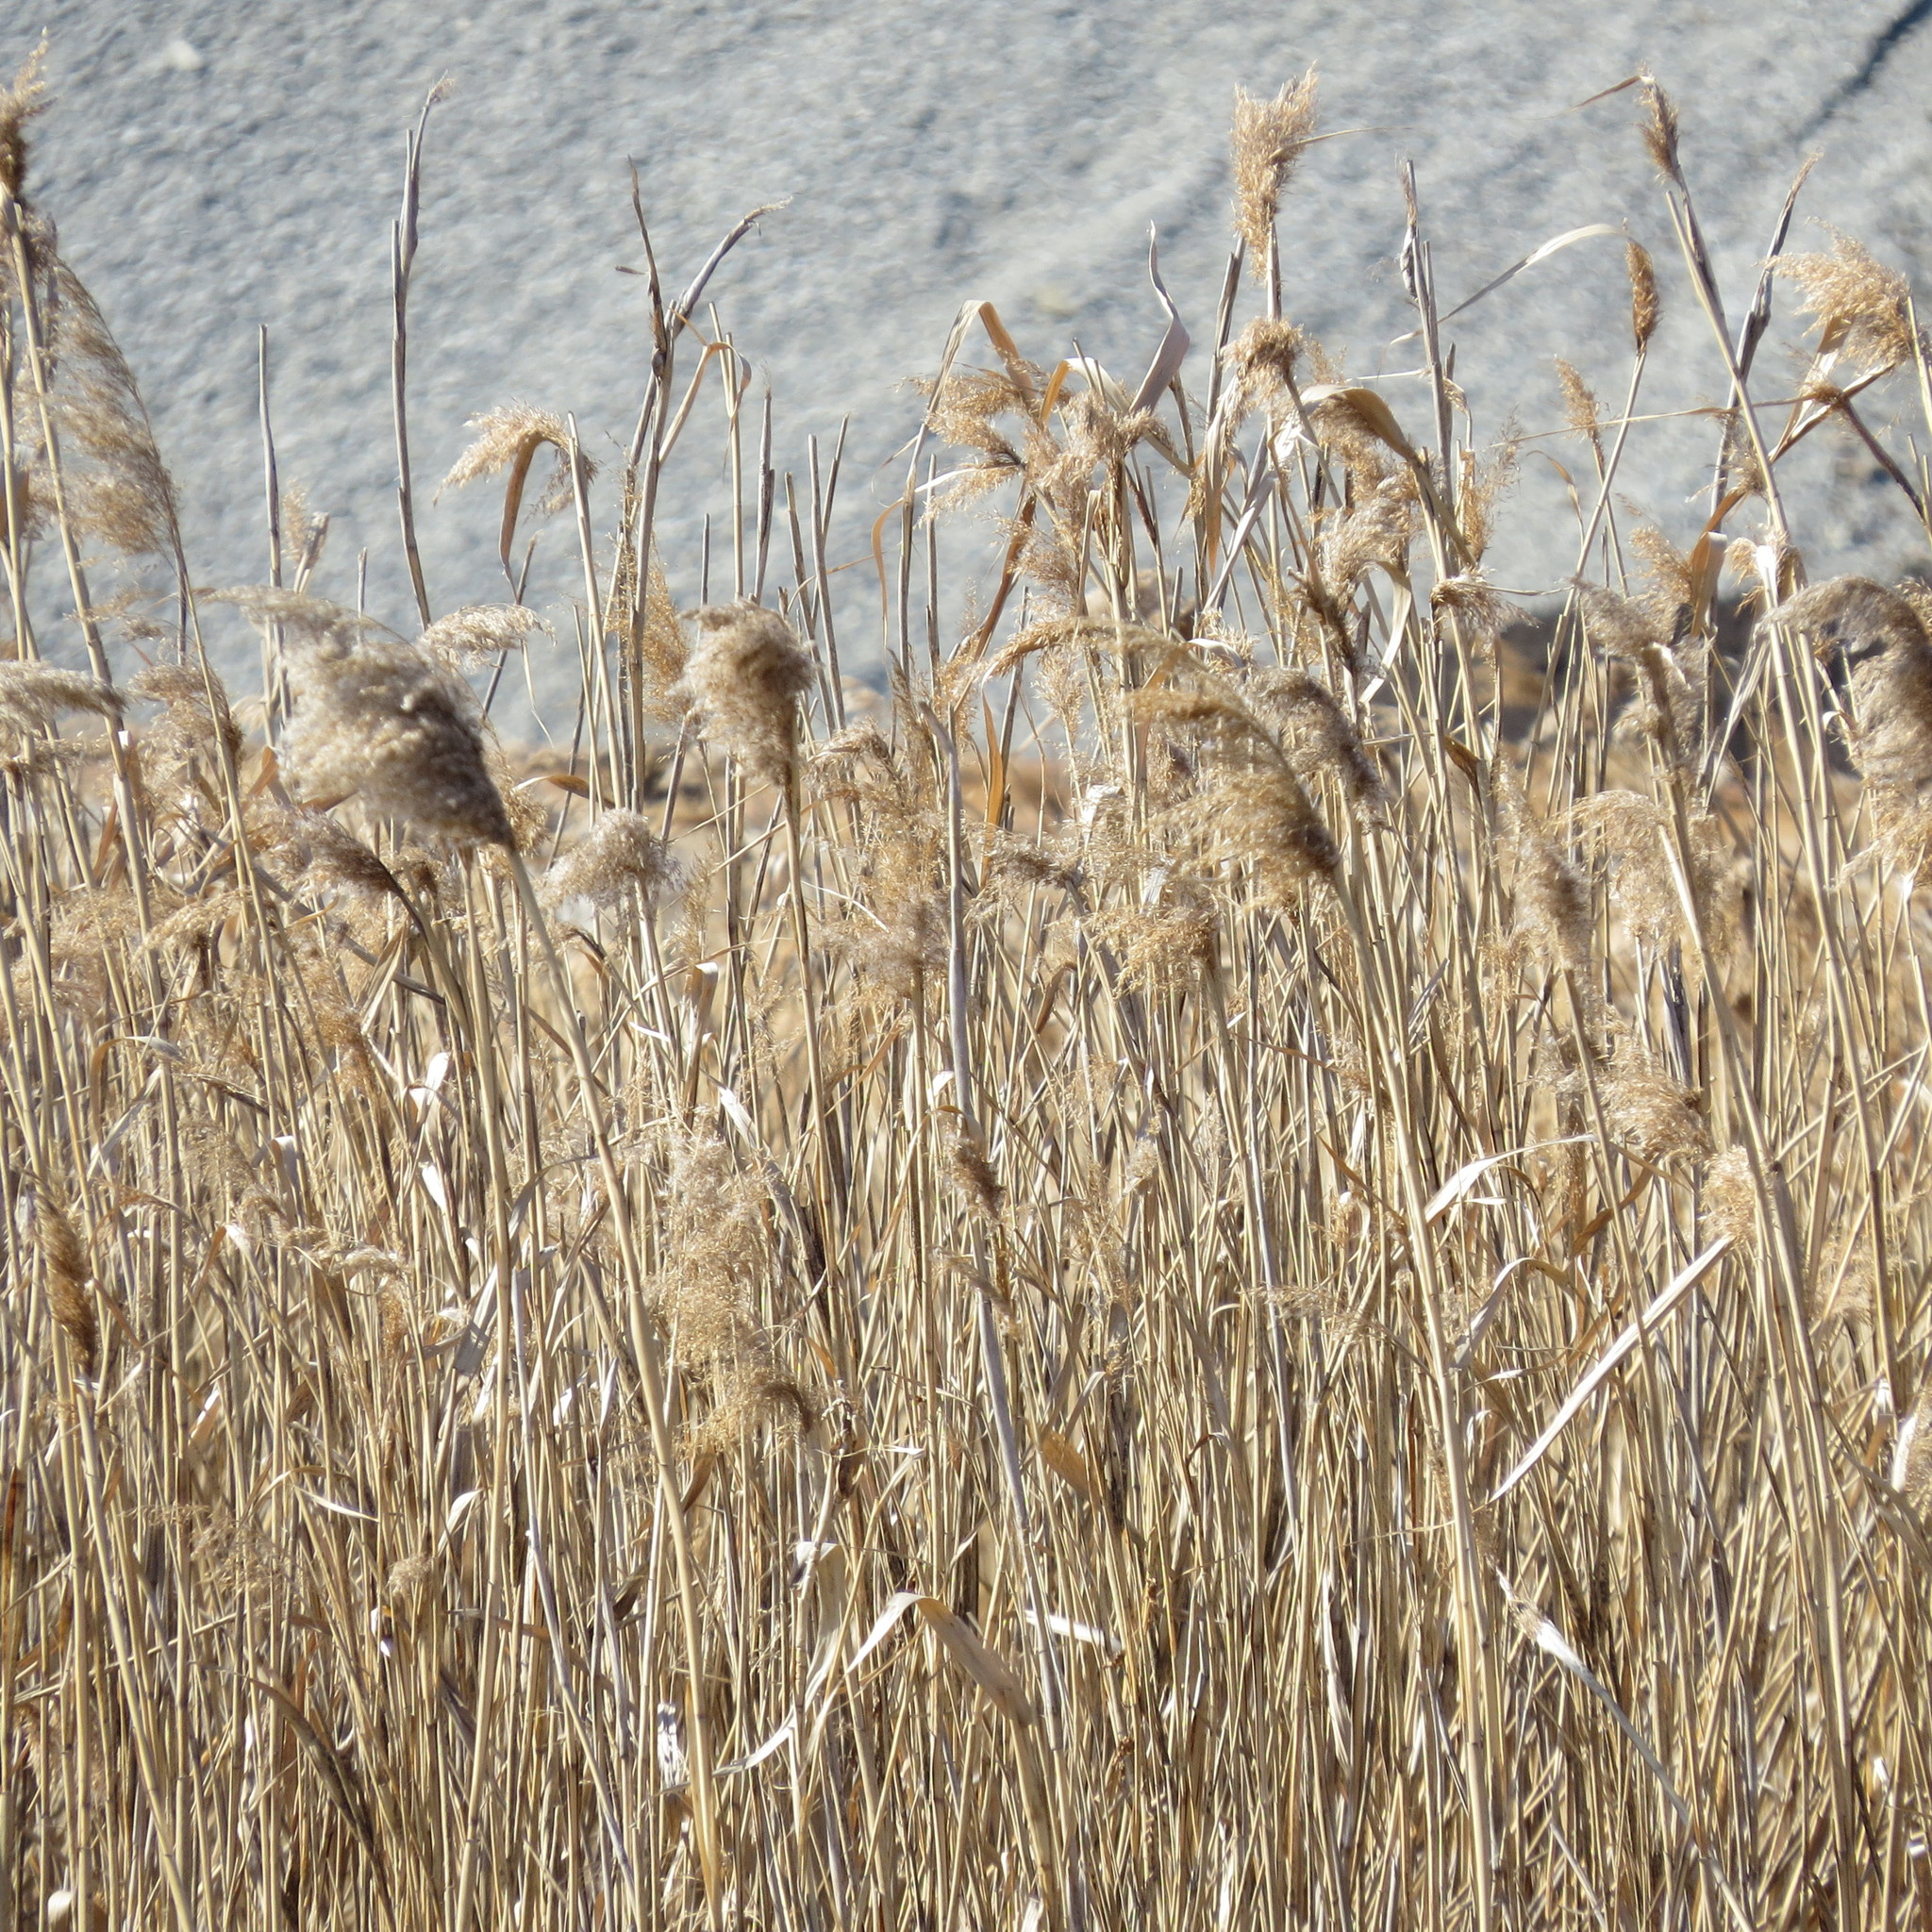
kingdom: Plantae
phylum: Tracheophyta
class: Liliopsida
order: Poales
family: Poaceae
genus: Phragmites
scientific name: Phragmites australis
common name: Common reed
